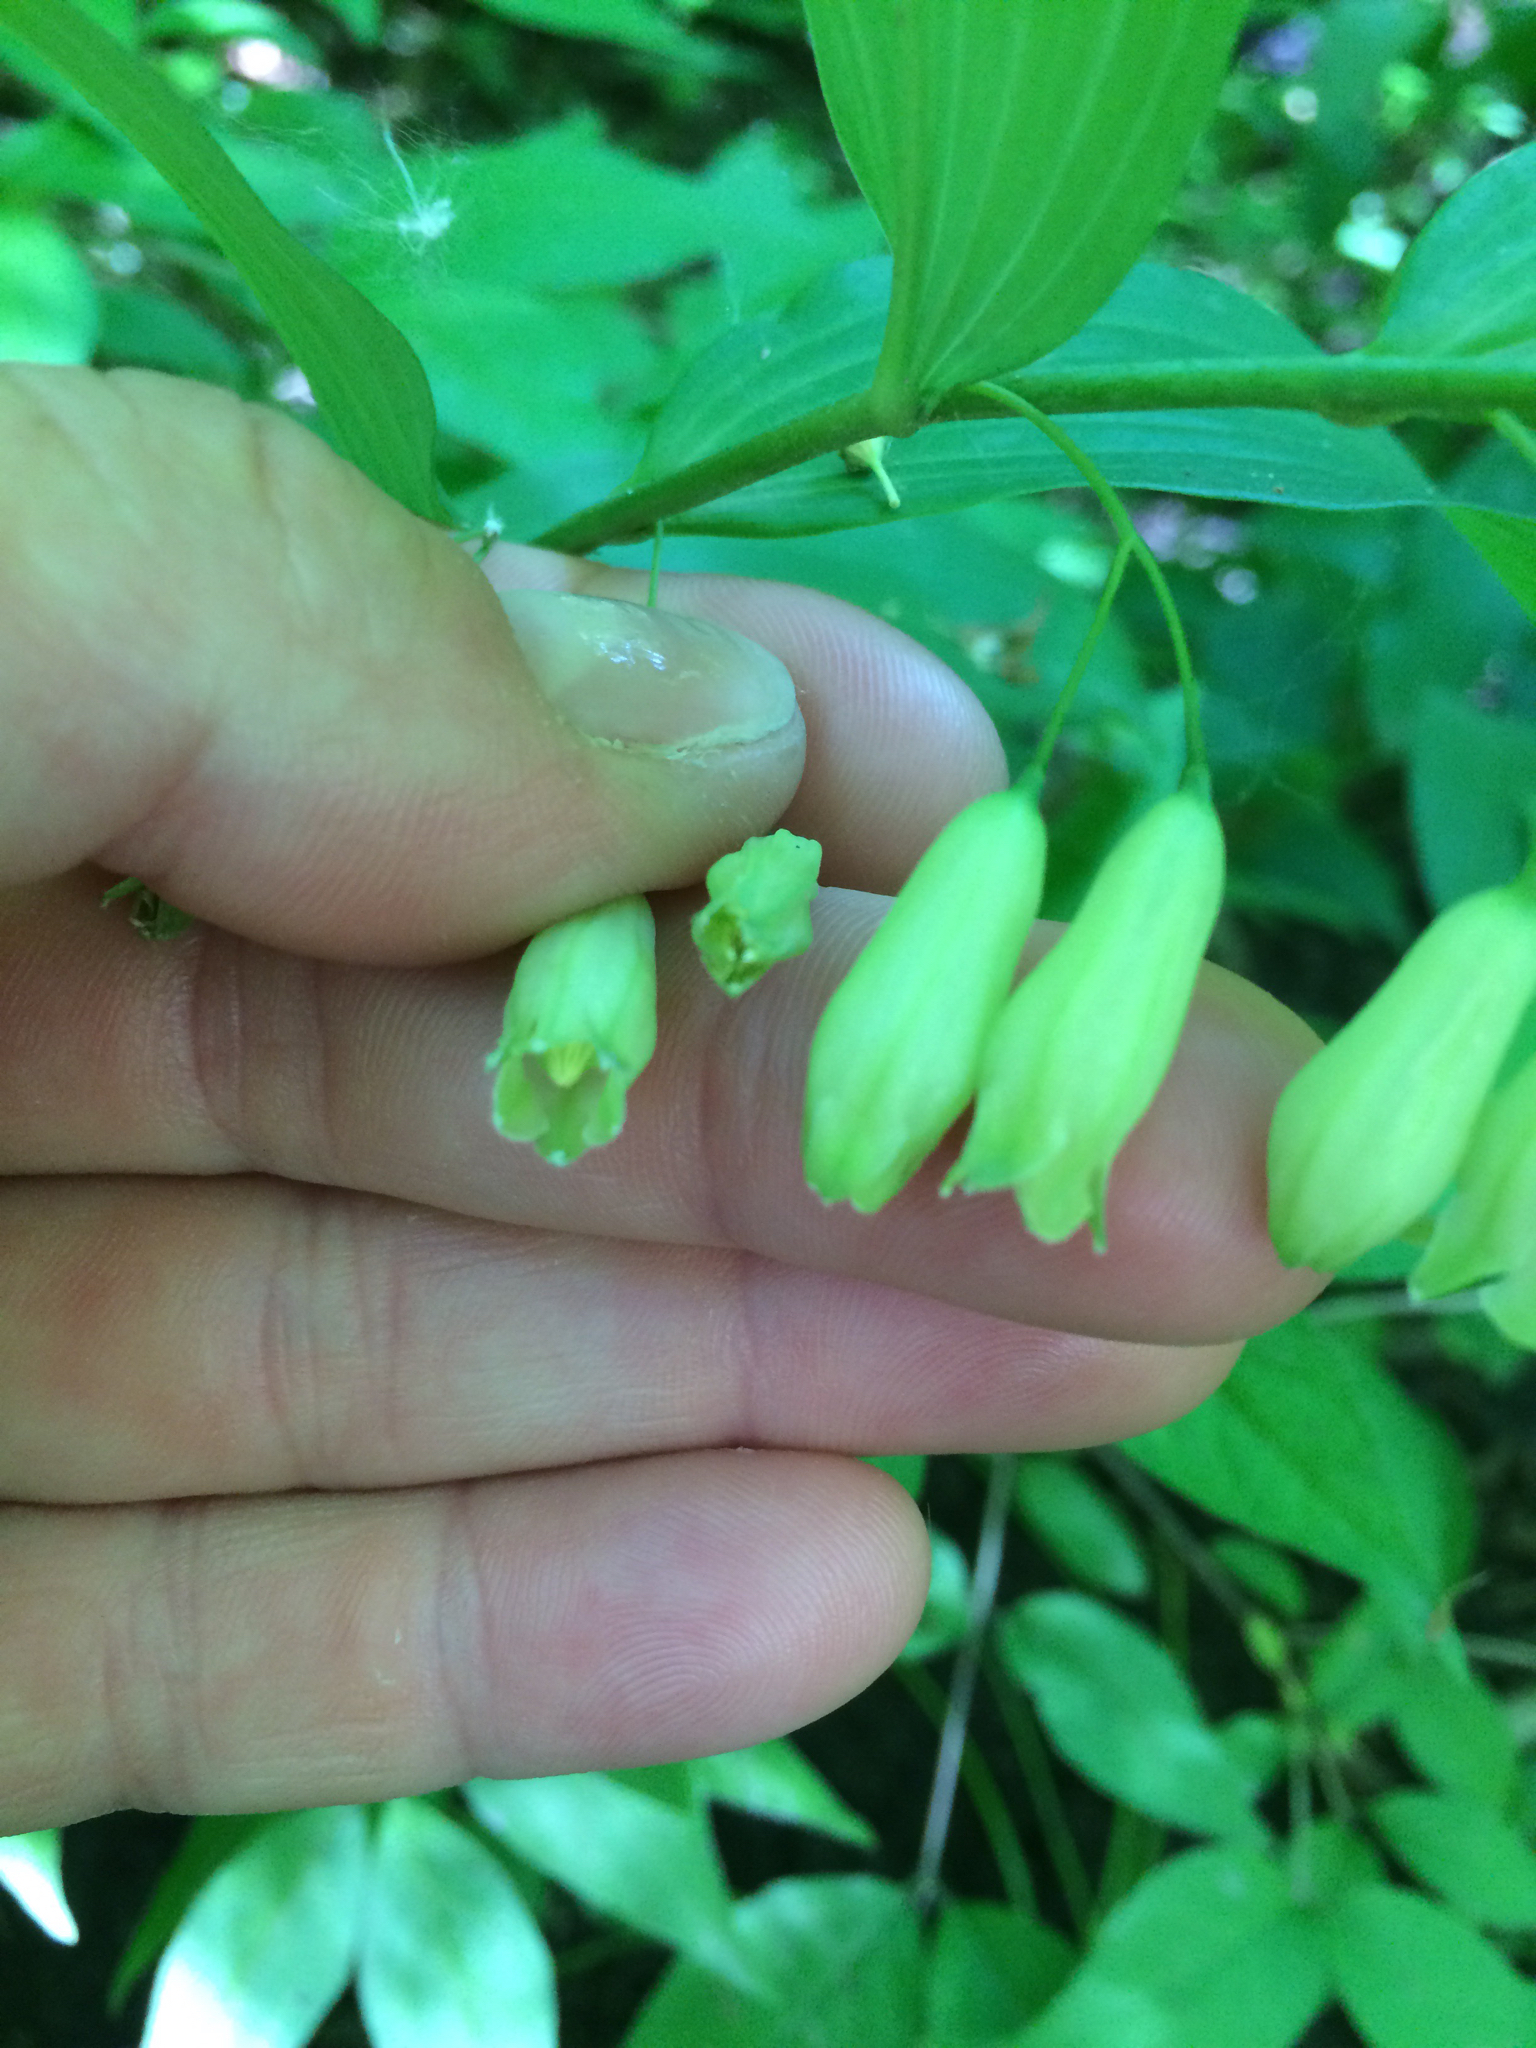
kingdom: Plantae
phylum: Tracheophyta
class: Liliopsida
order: Asparagales
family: Asparagaceae
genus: Polygonatum
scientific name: Polygonatum biflorum
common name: American solomon's-seal
